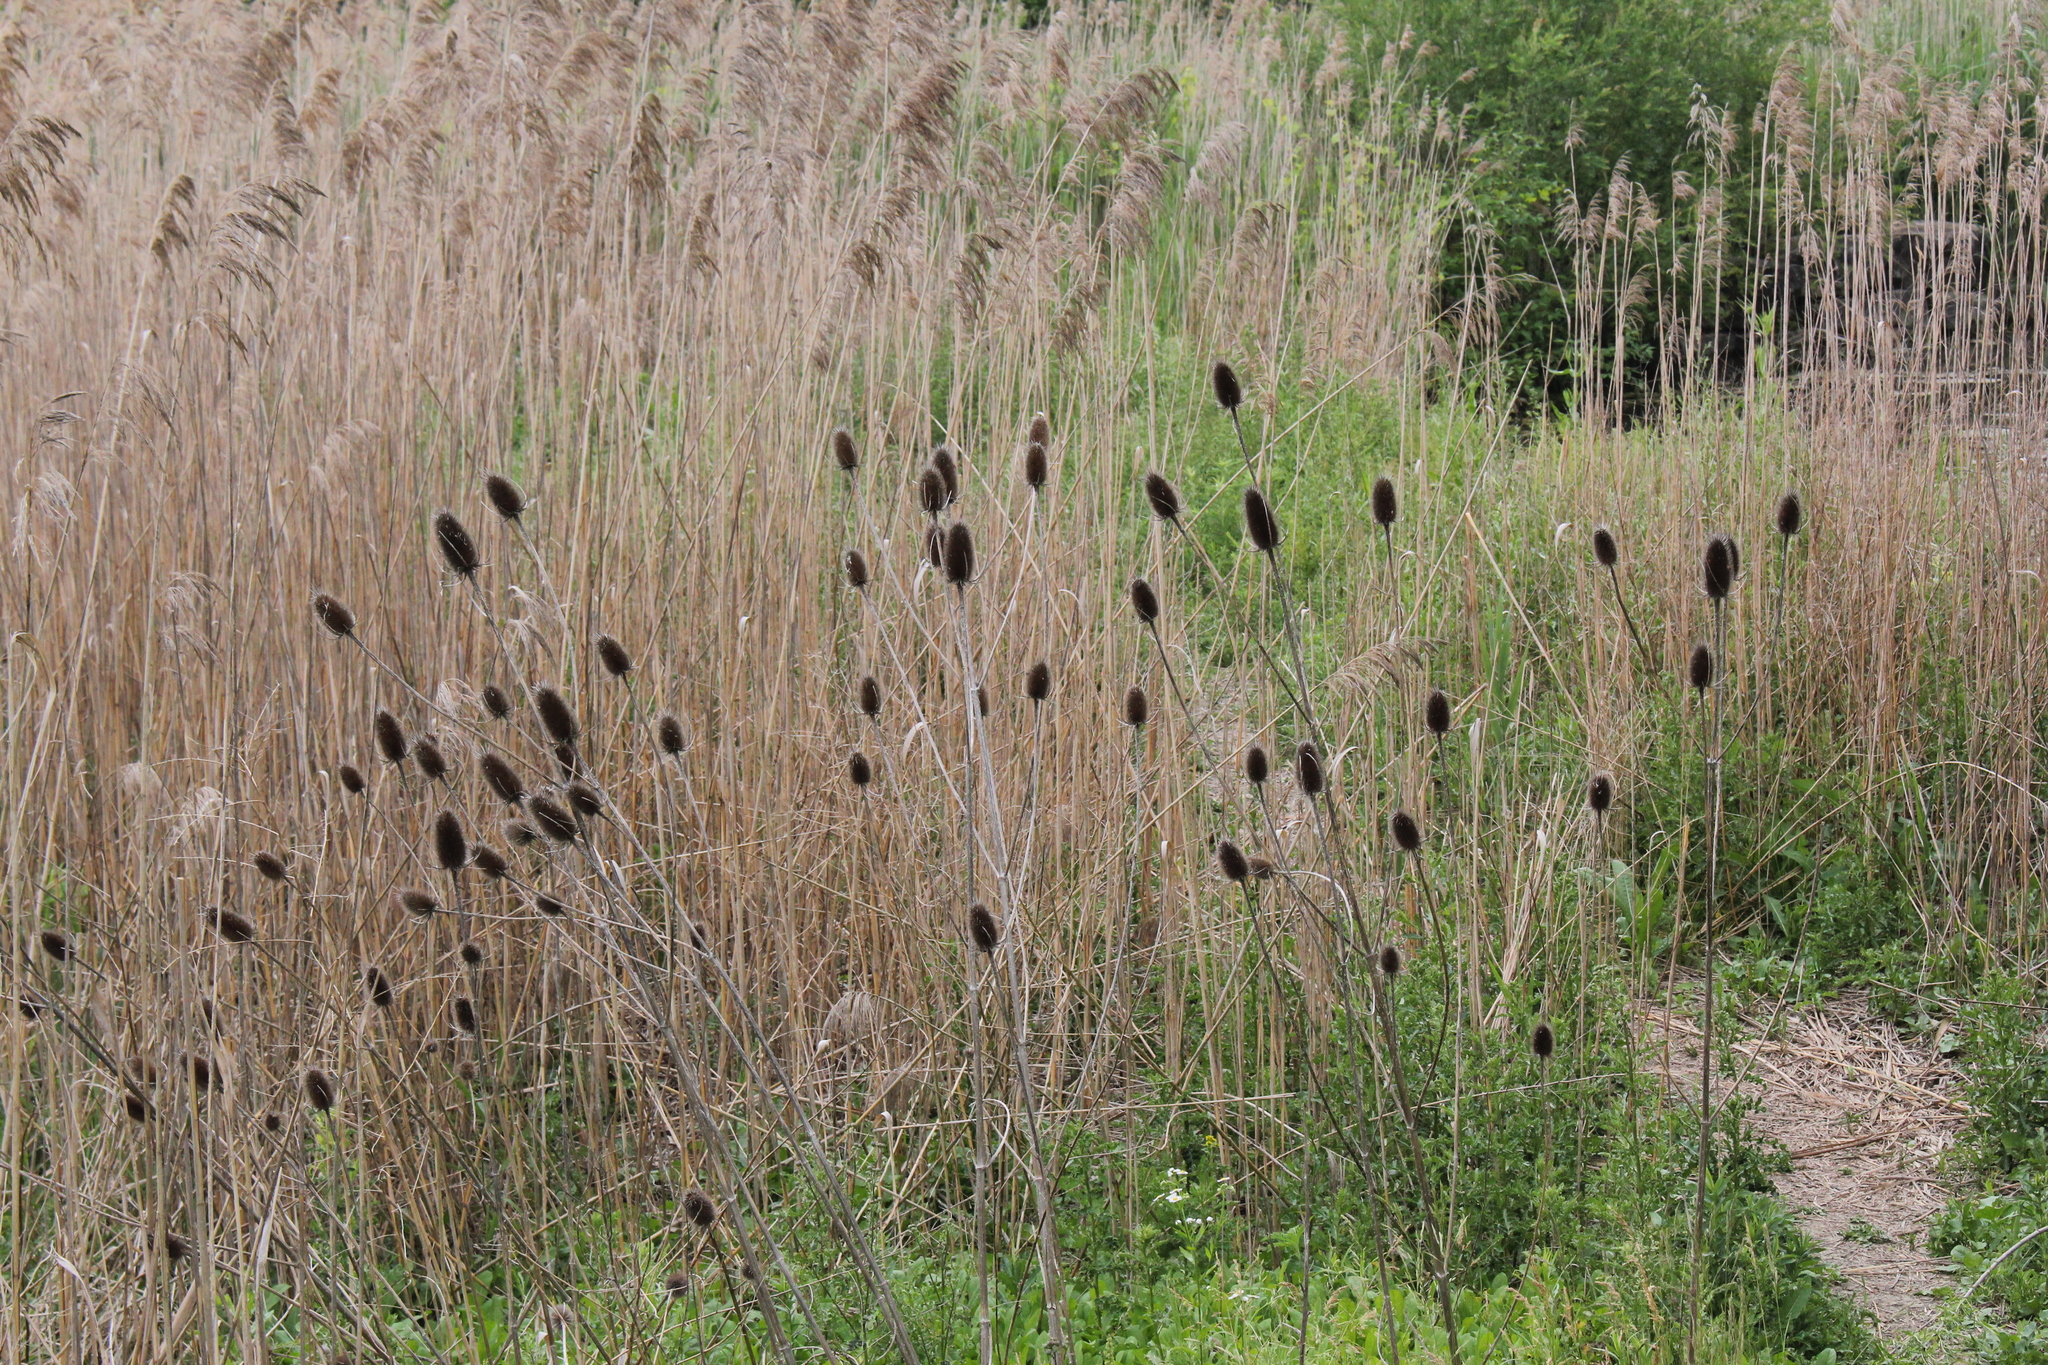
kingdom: Plantae
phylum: Tracheophyta
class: Magnoliopsida
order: Dipsacales
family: Caprifoliaceae
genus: Dipsacus
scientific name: Dipsacus fullonum
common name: Teasel
